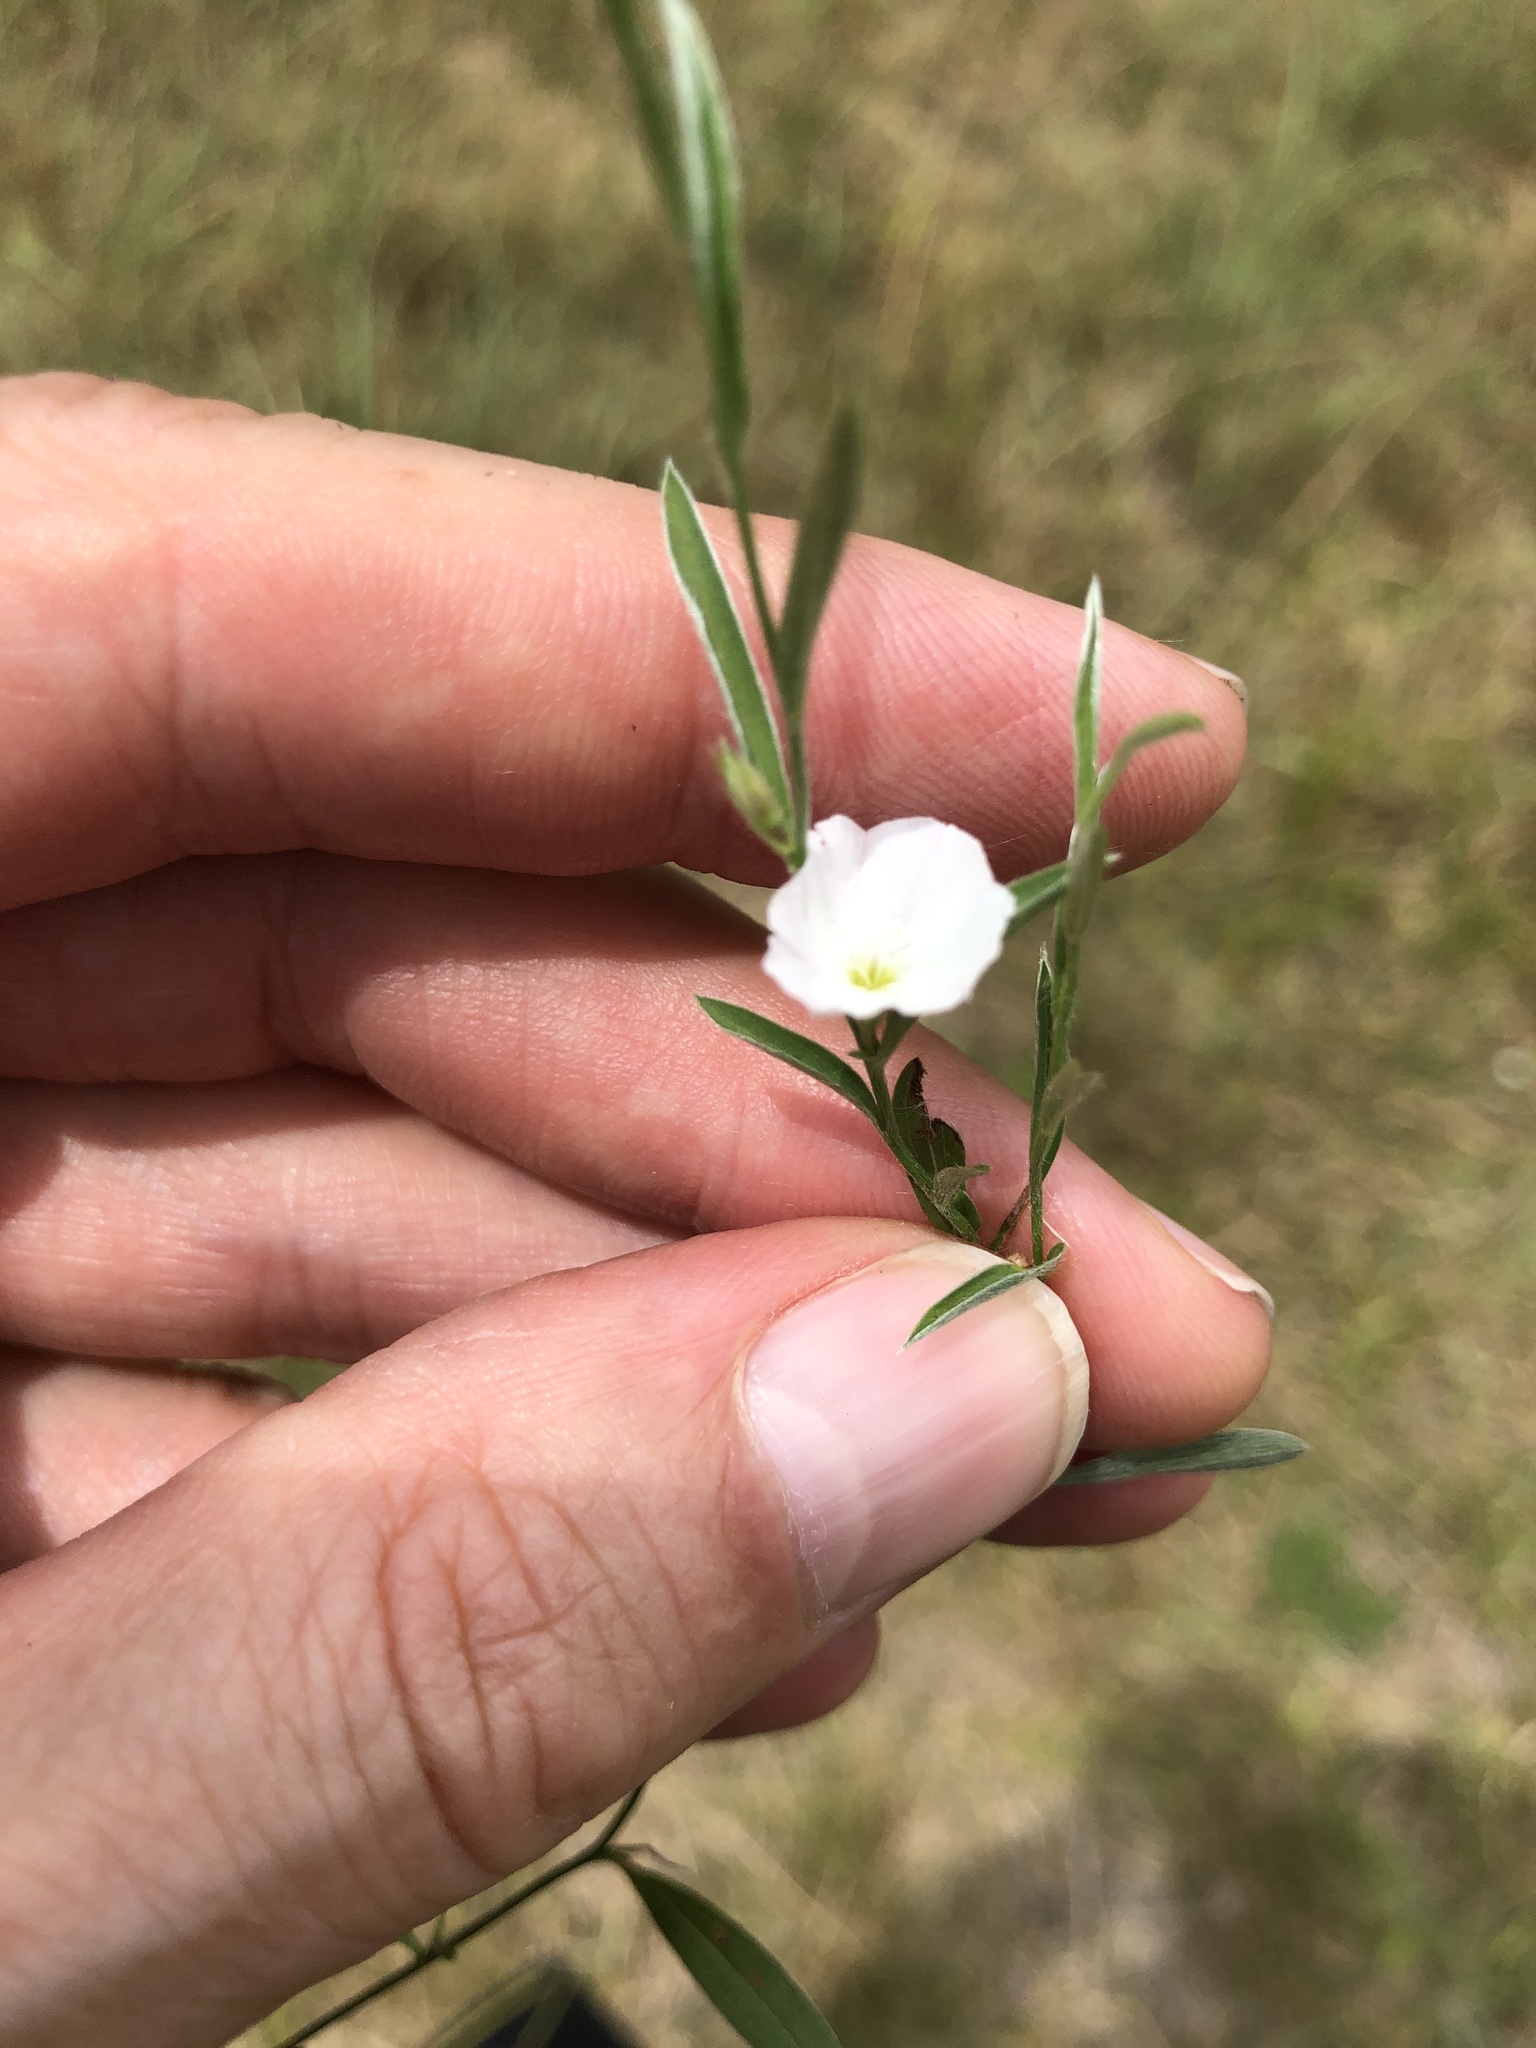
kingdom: Plantae
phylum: Tracheophyta
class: Magnoliopsida
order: Solanales
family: Convolvulaceae
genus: Evolvulus
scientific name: Evolvulus sericeus
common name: Blue dots
